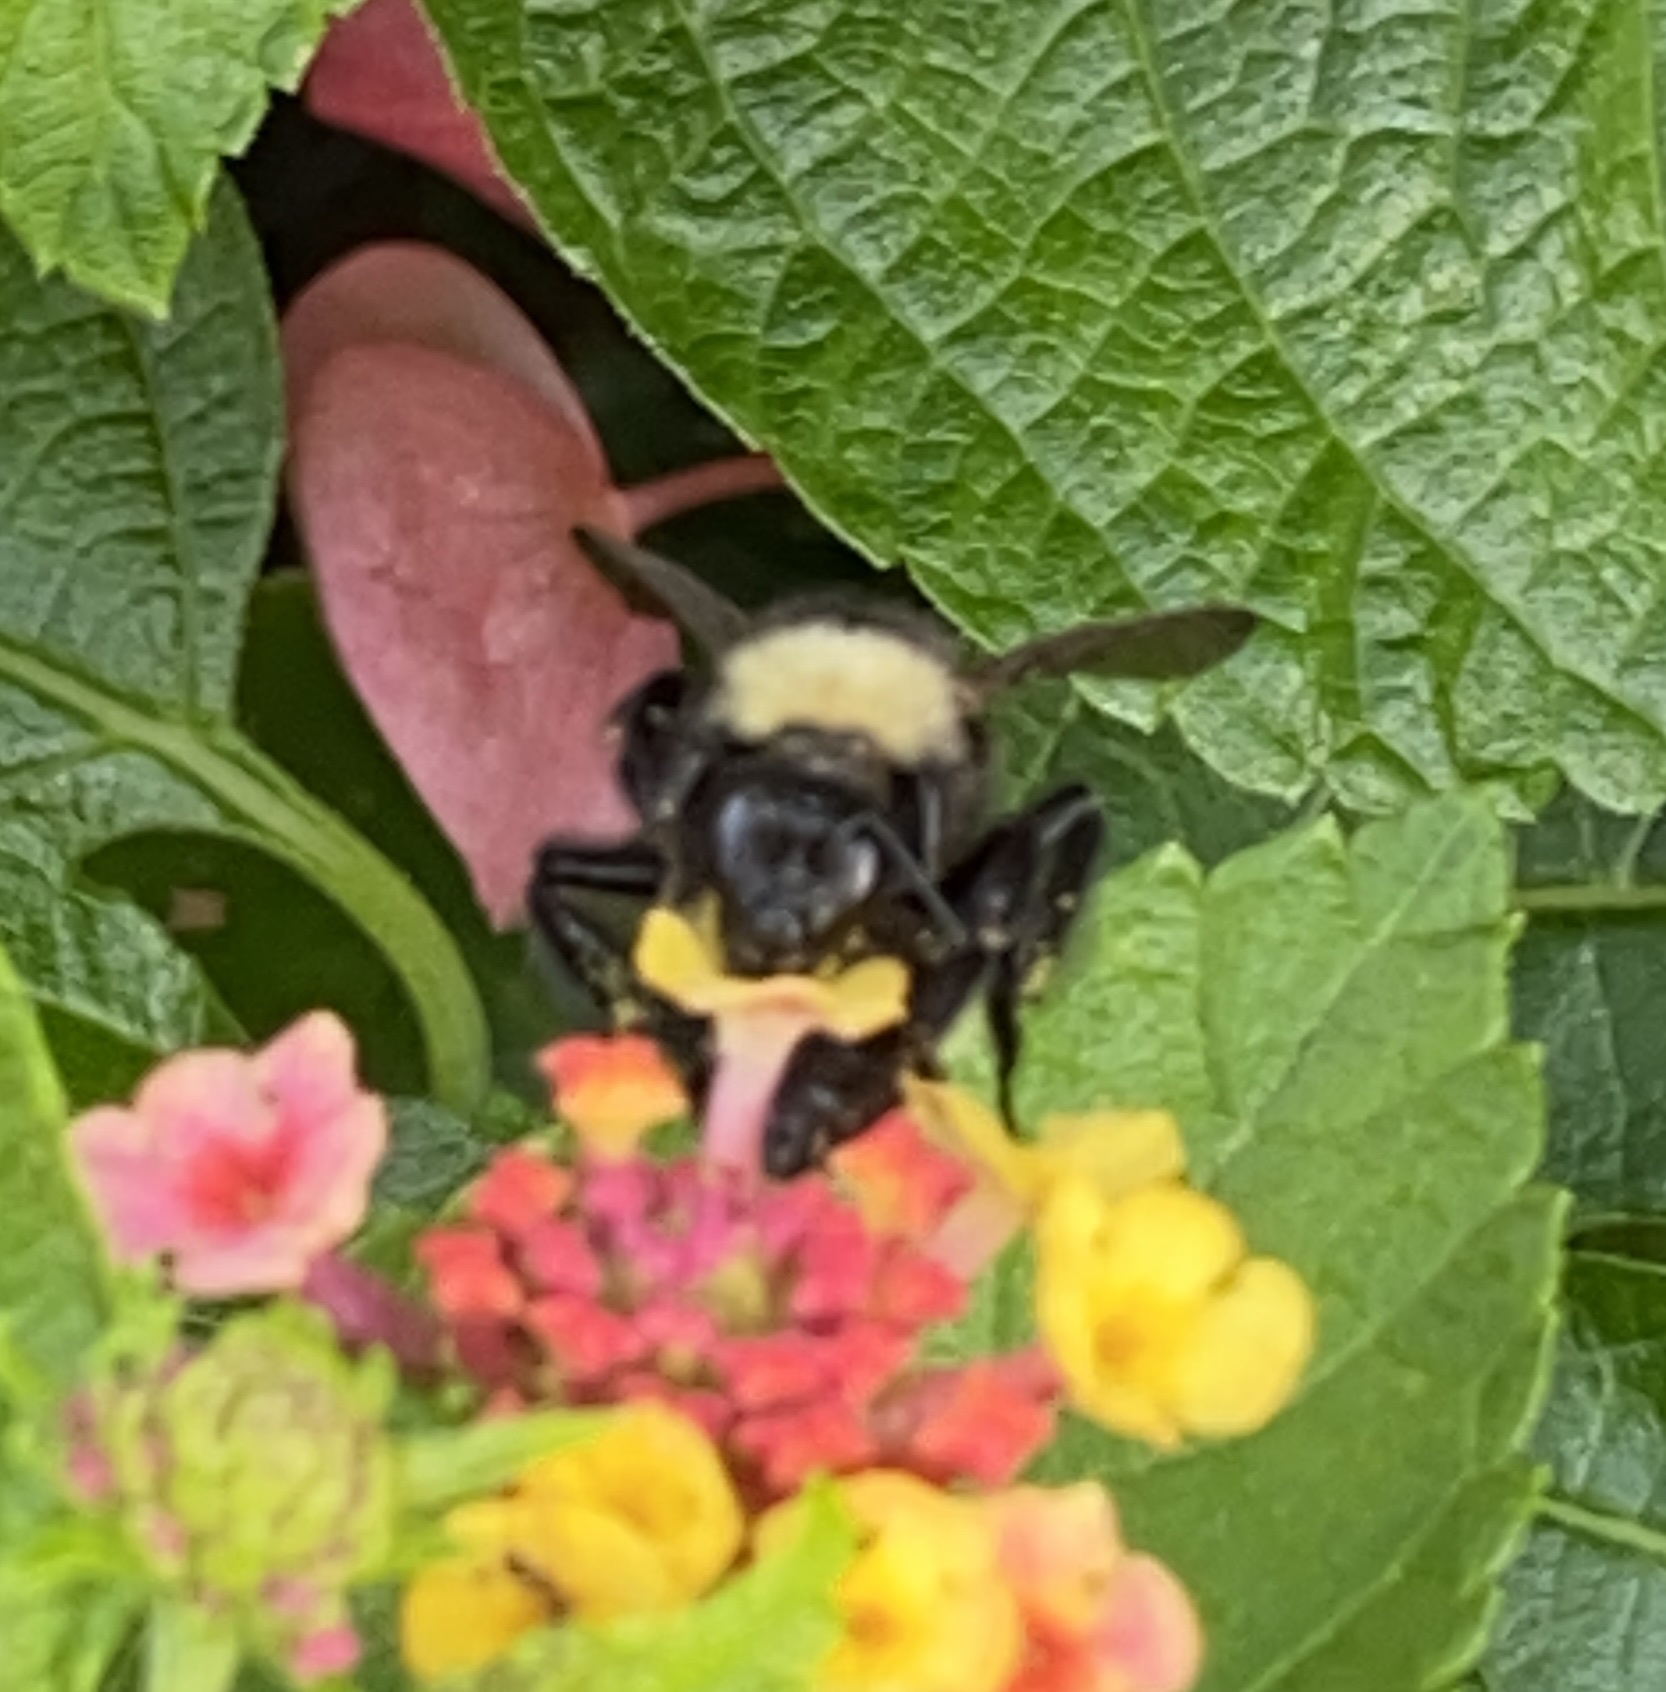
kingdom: Animalia
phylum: Arthropoda
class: Insecta
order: Hymenoptera
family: Apidae
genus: Bombus
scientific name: Bombus pensylvanicus
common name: Bumble bee
